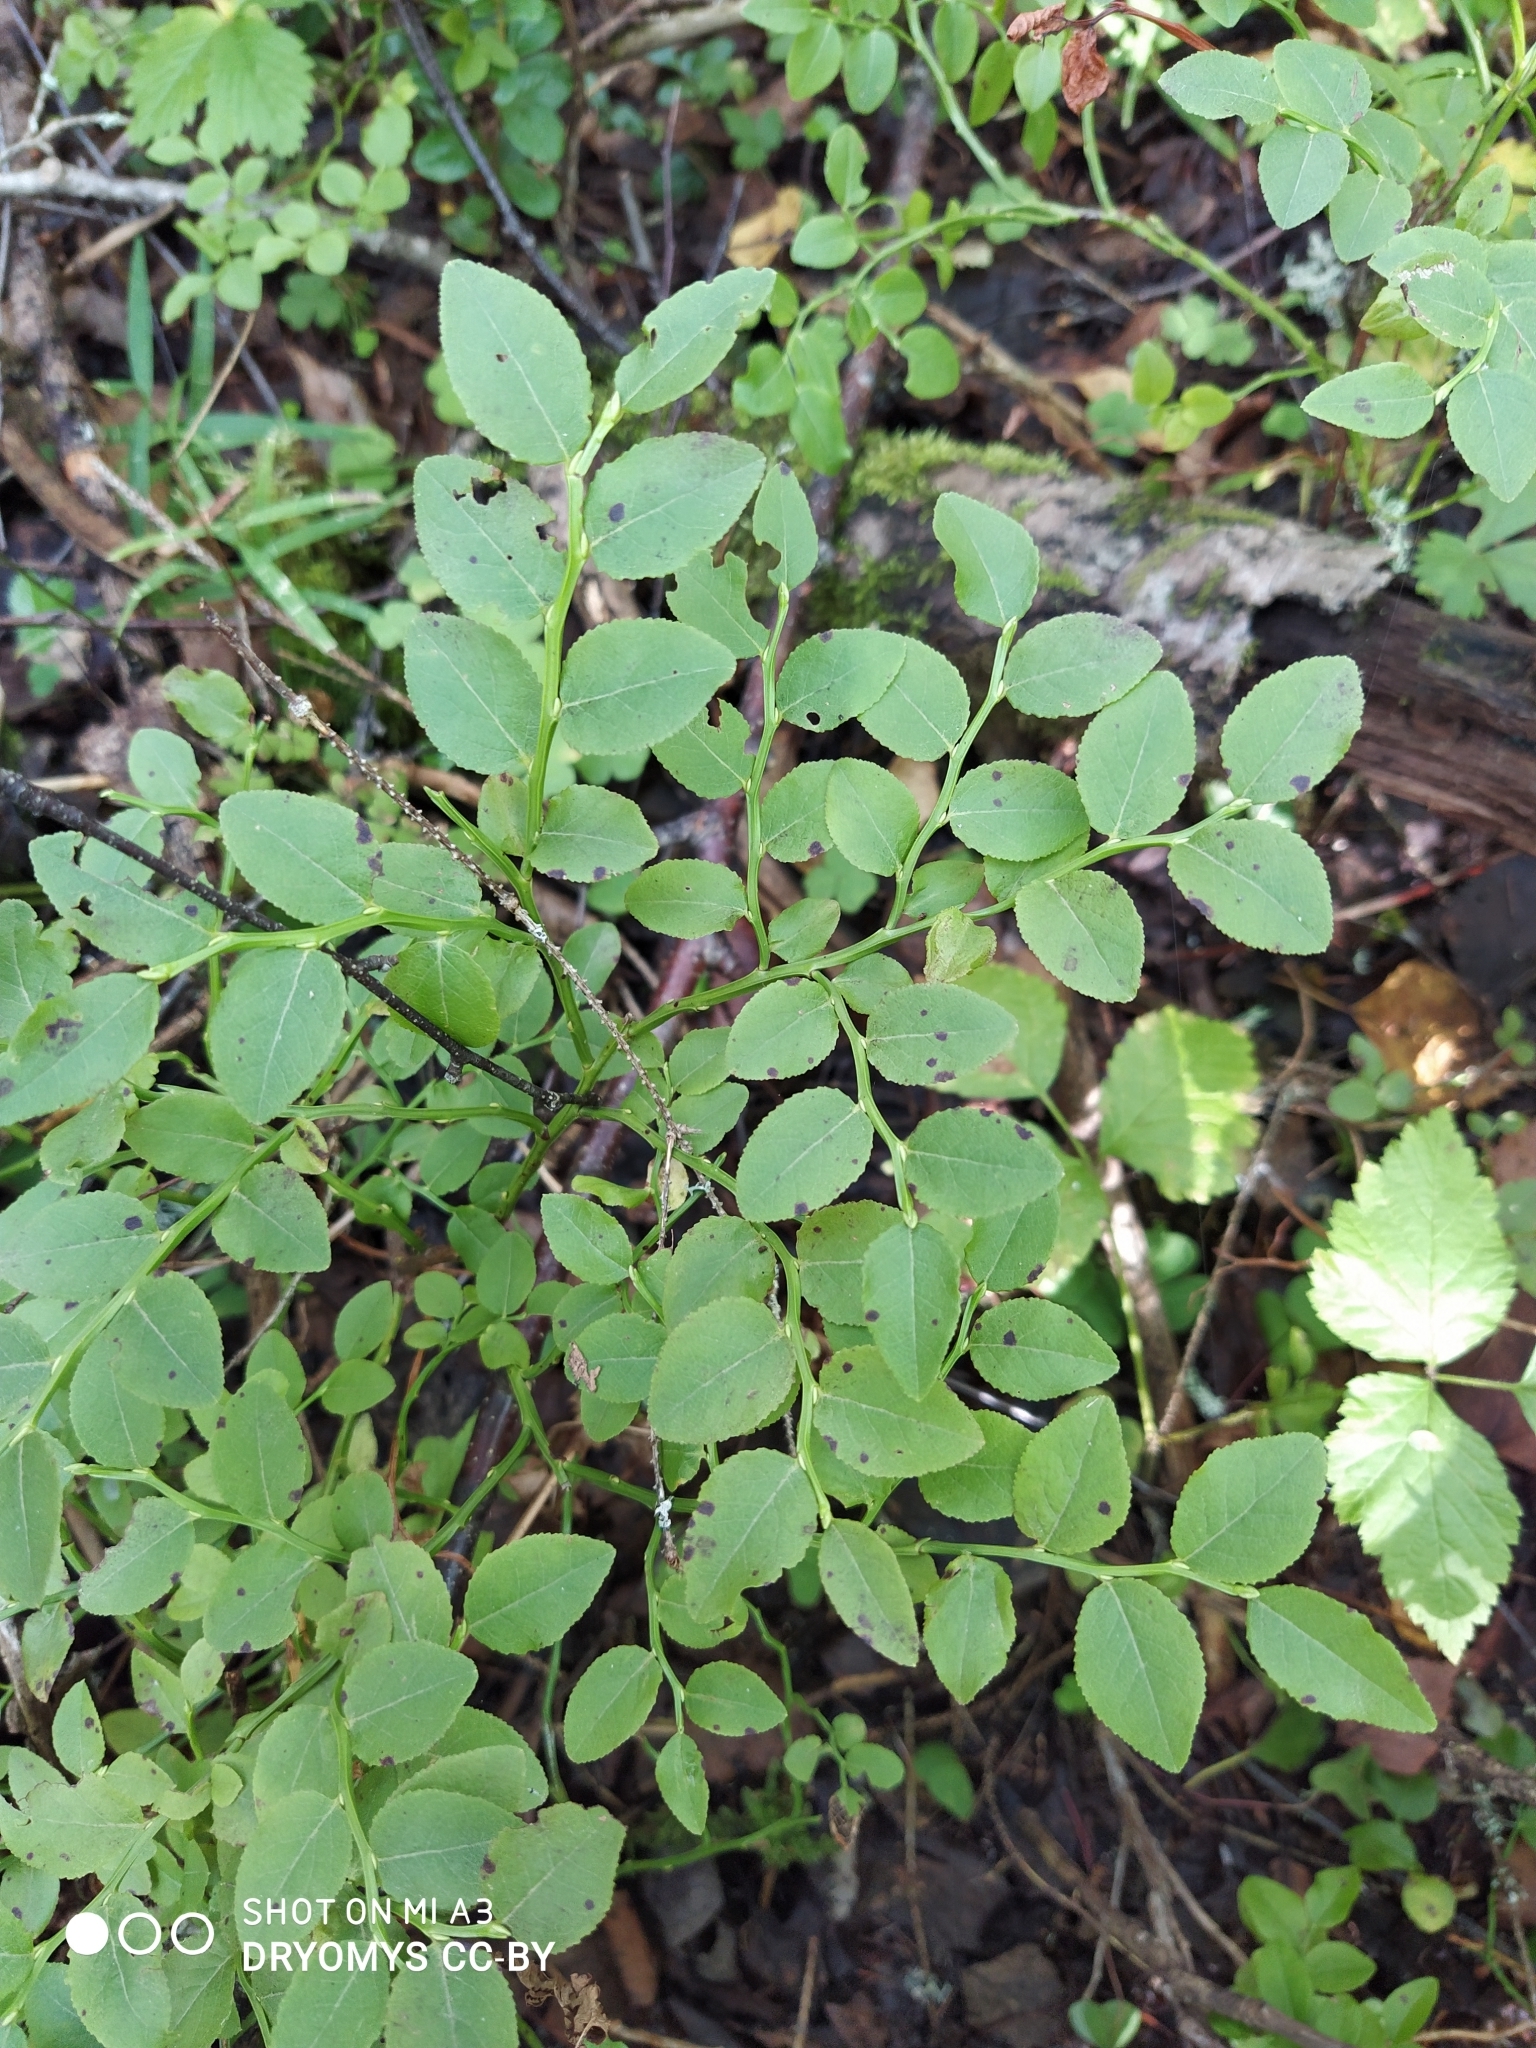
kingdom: Plantae
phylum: Tracheophyta
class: Magnoliopsida
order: Ericales
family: Ericaceae
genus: Vaccinium
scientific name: Vaccinium myrtillus
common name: Bilberry
